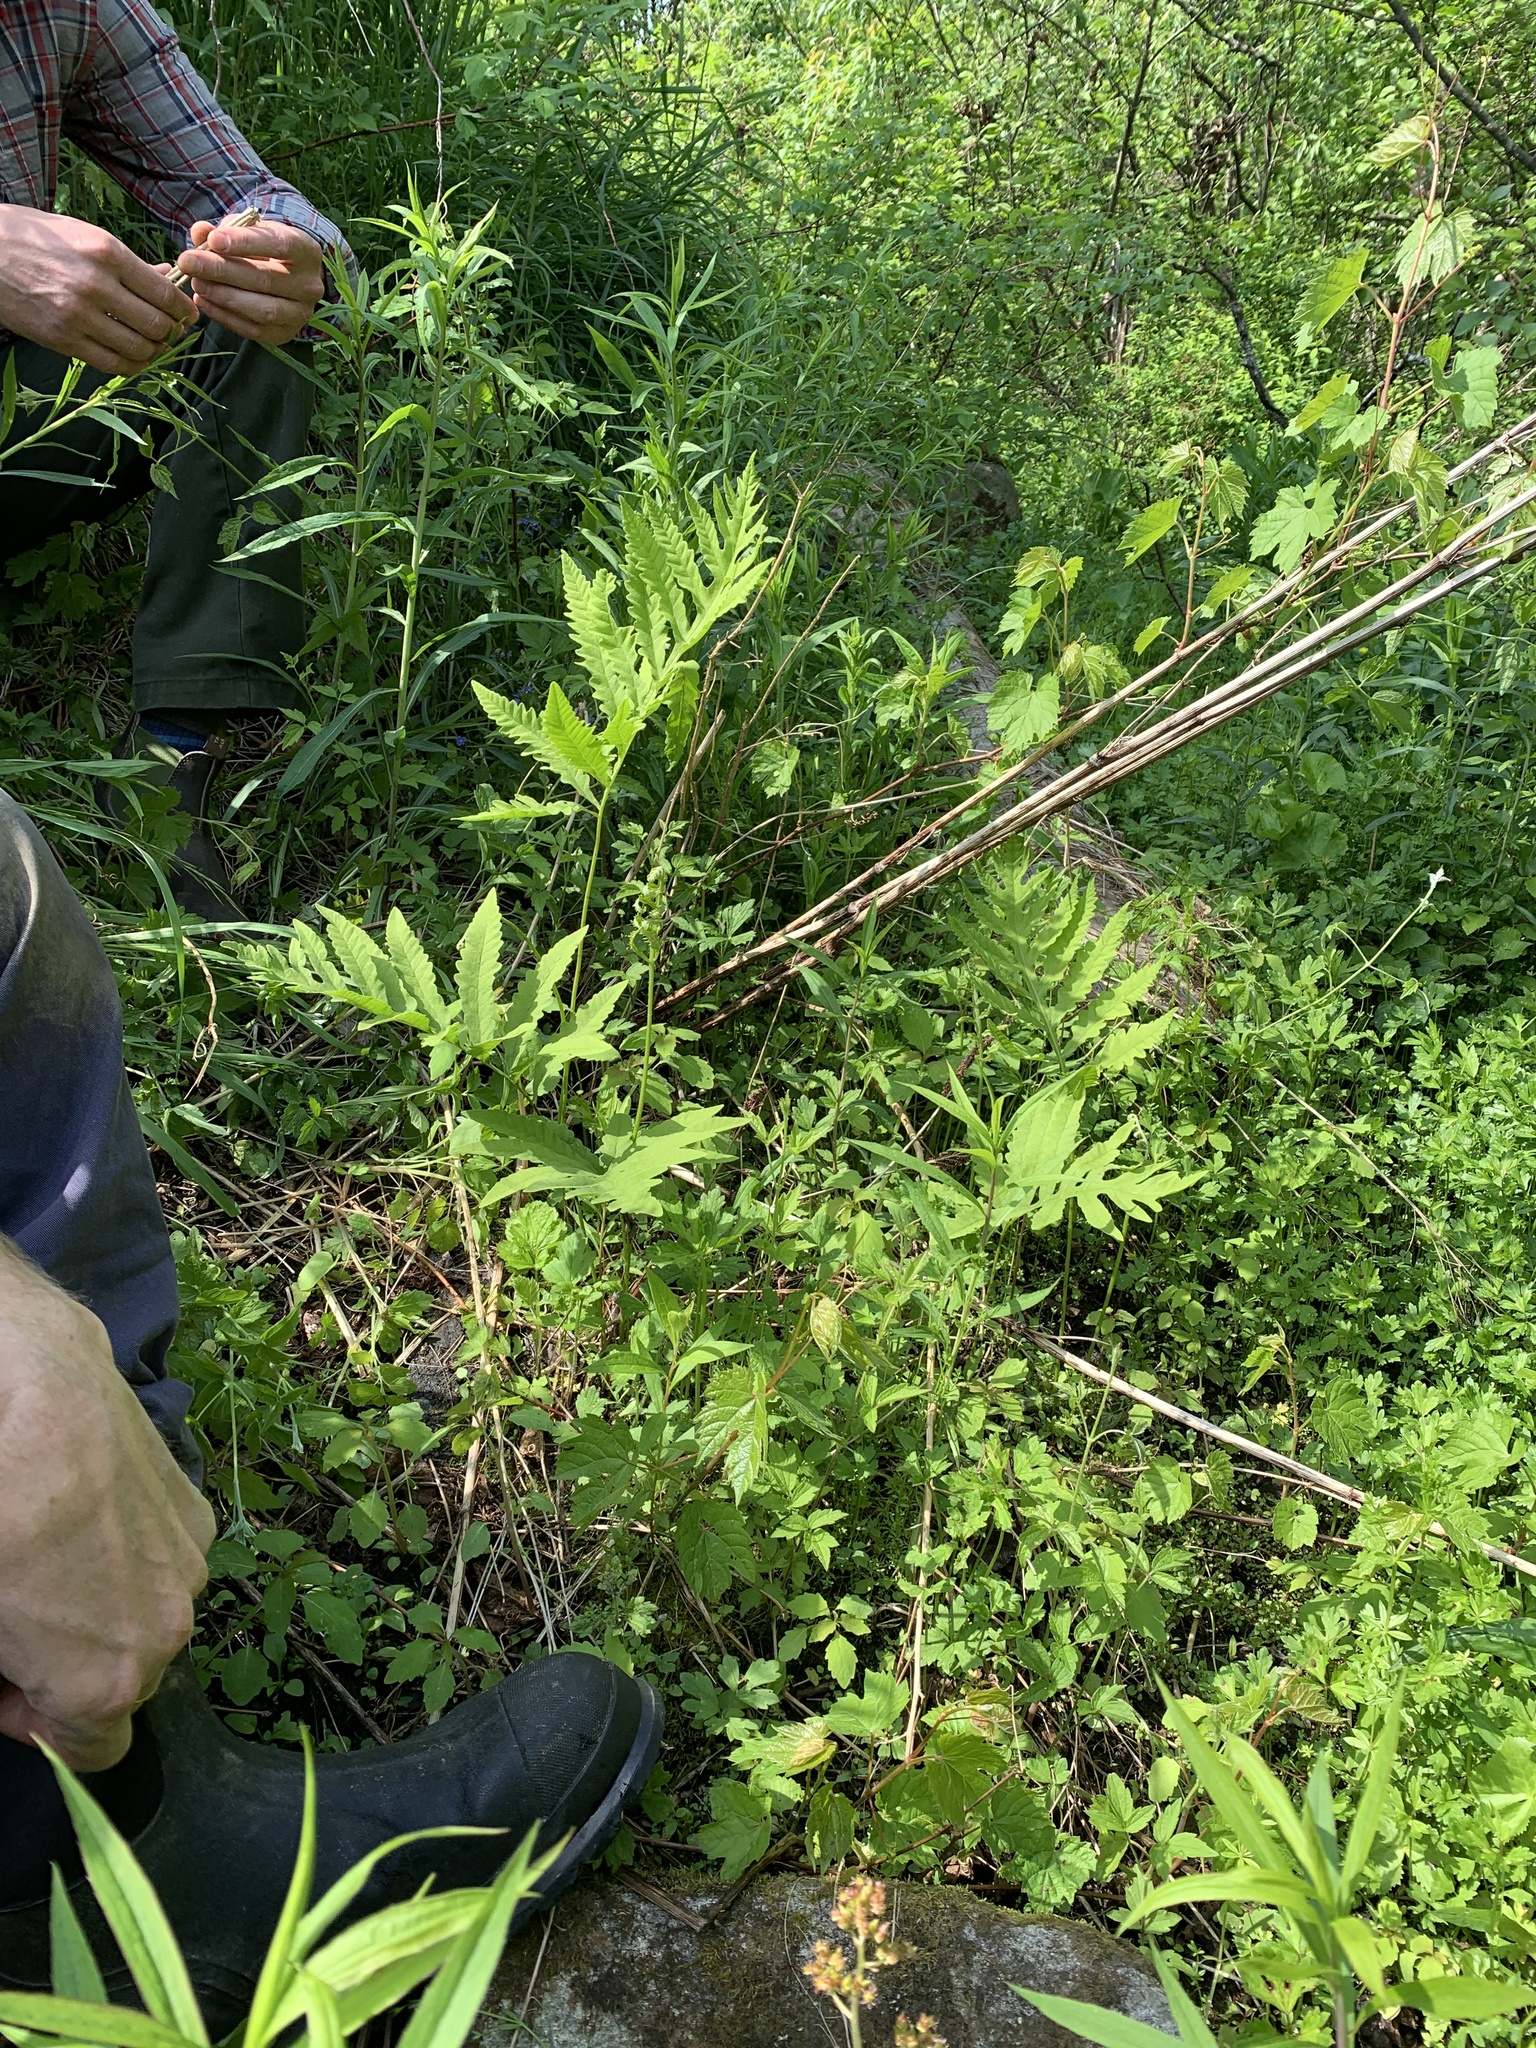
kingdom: Plantae
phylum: Tracheophyta
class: Polypodiopsida
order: Polypodiales
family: Onocleaceae
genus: Onoclea
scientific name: Onoclea sensibilis
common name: Sensitive fern
